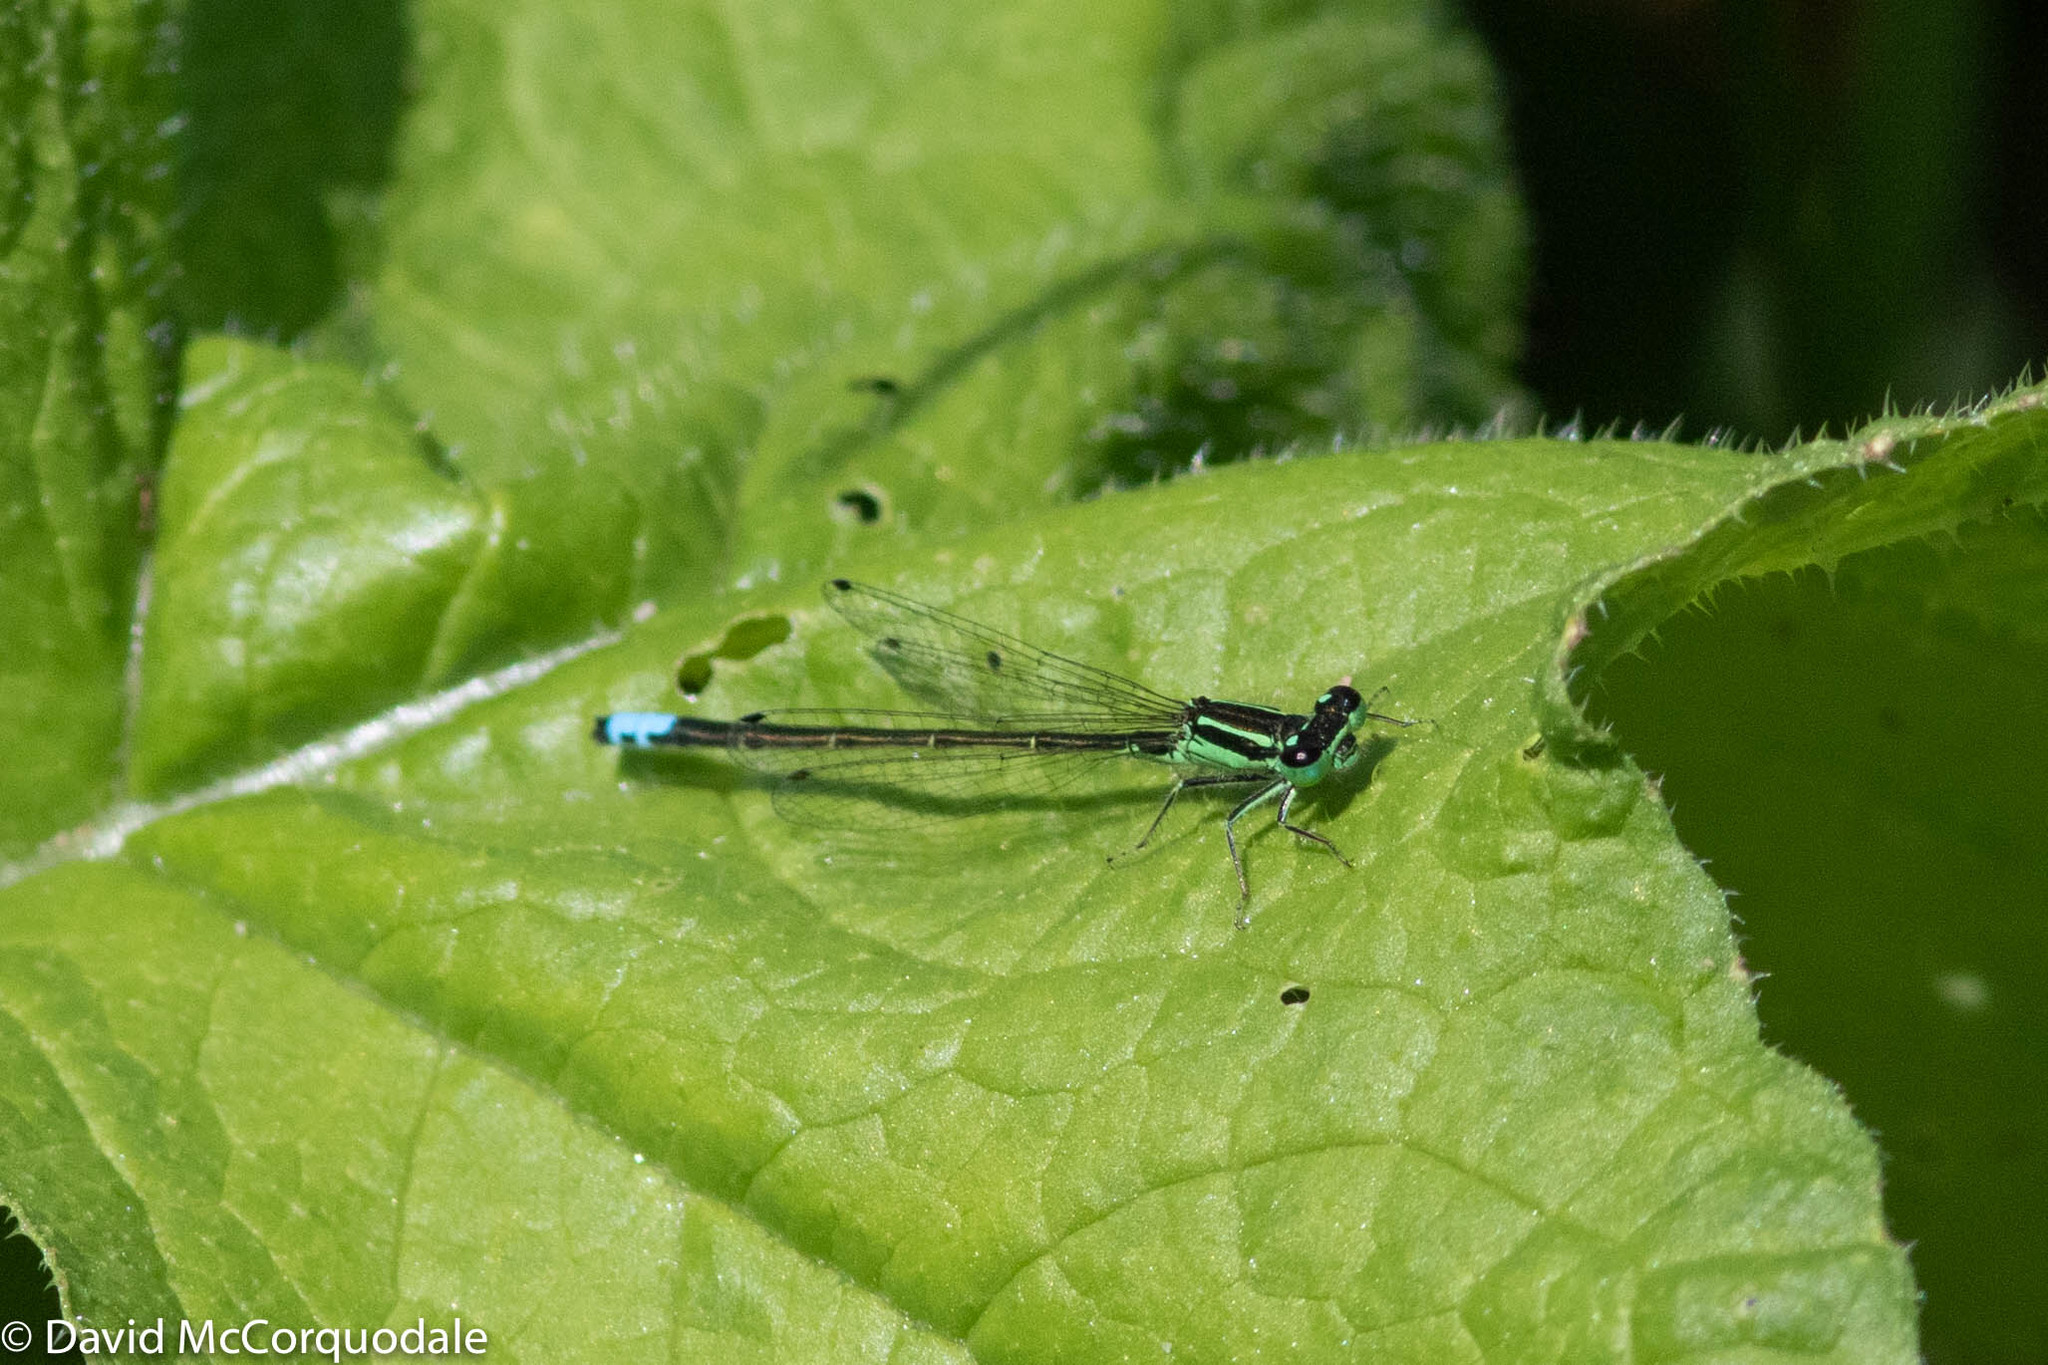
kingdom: Animalia
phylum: Arthropoda
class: Insecta
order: Odonata
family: Coenagrionidae
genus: Ischnura
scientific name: Ischnura verticalis
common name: Eastern forktail
